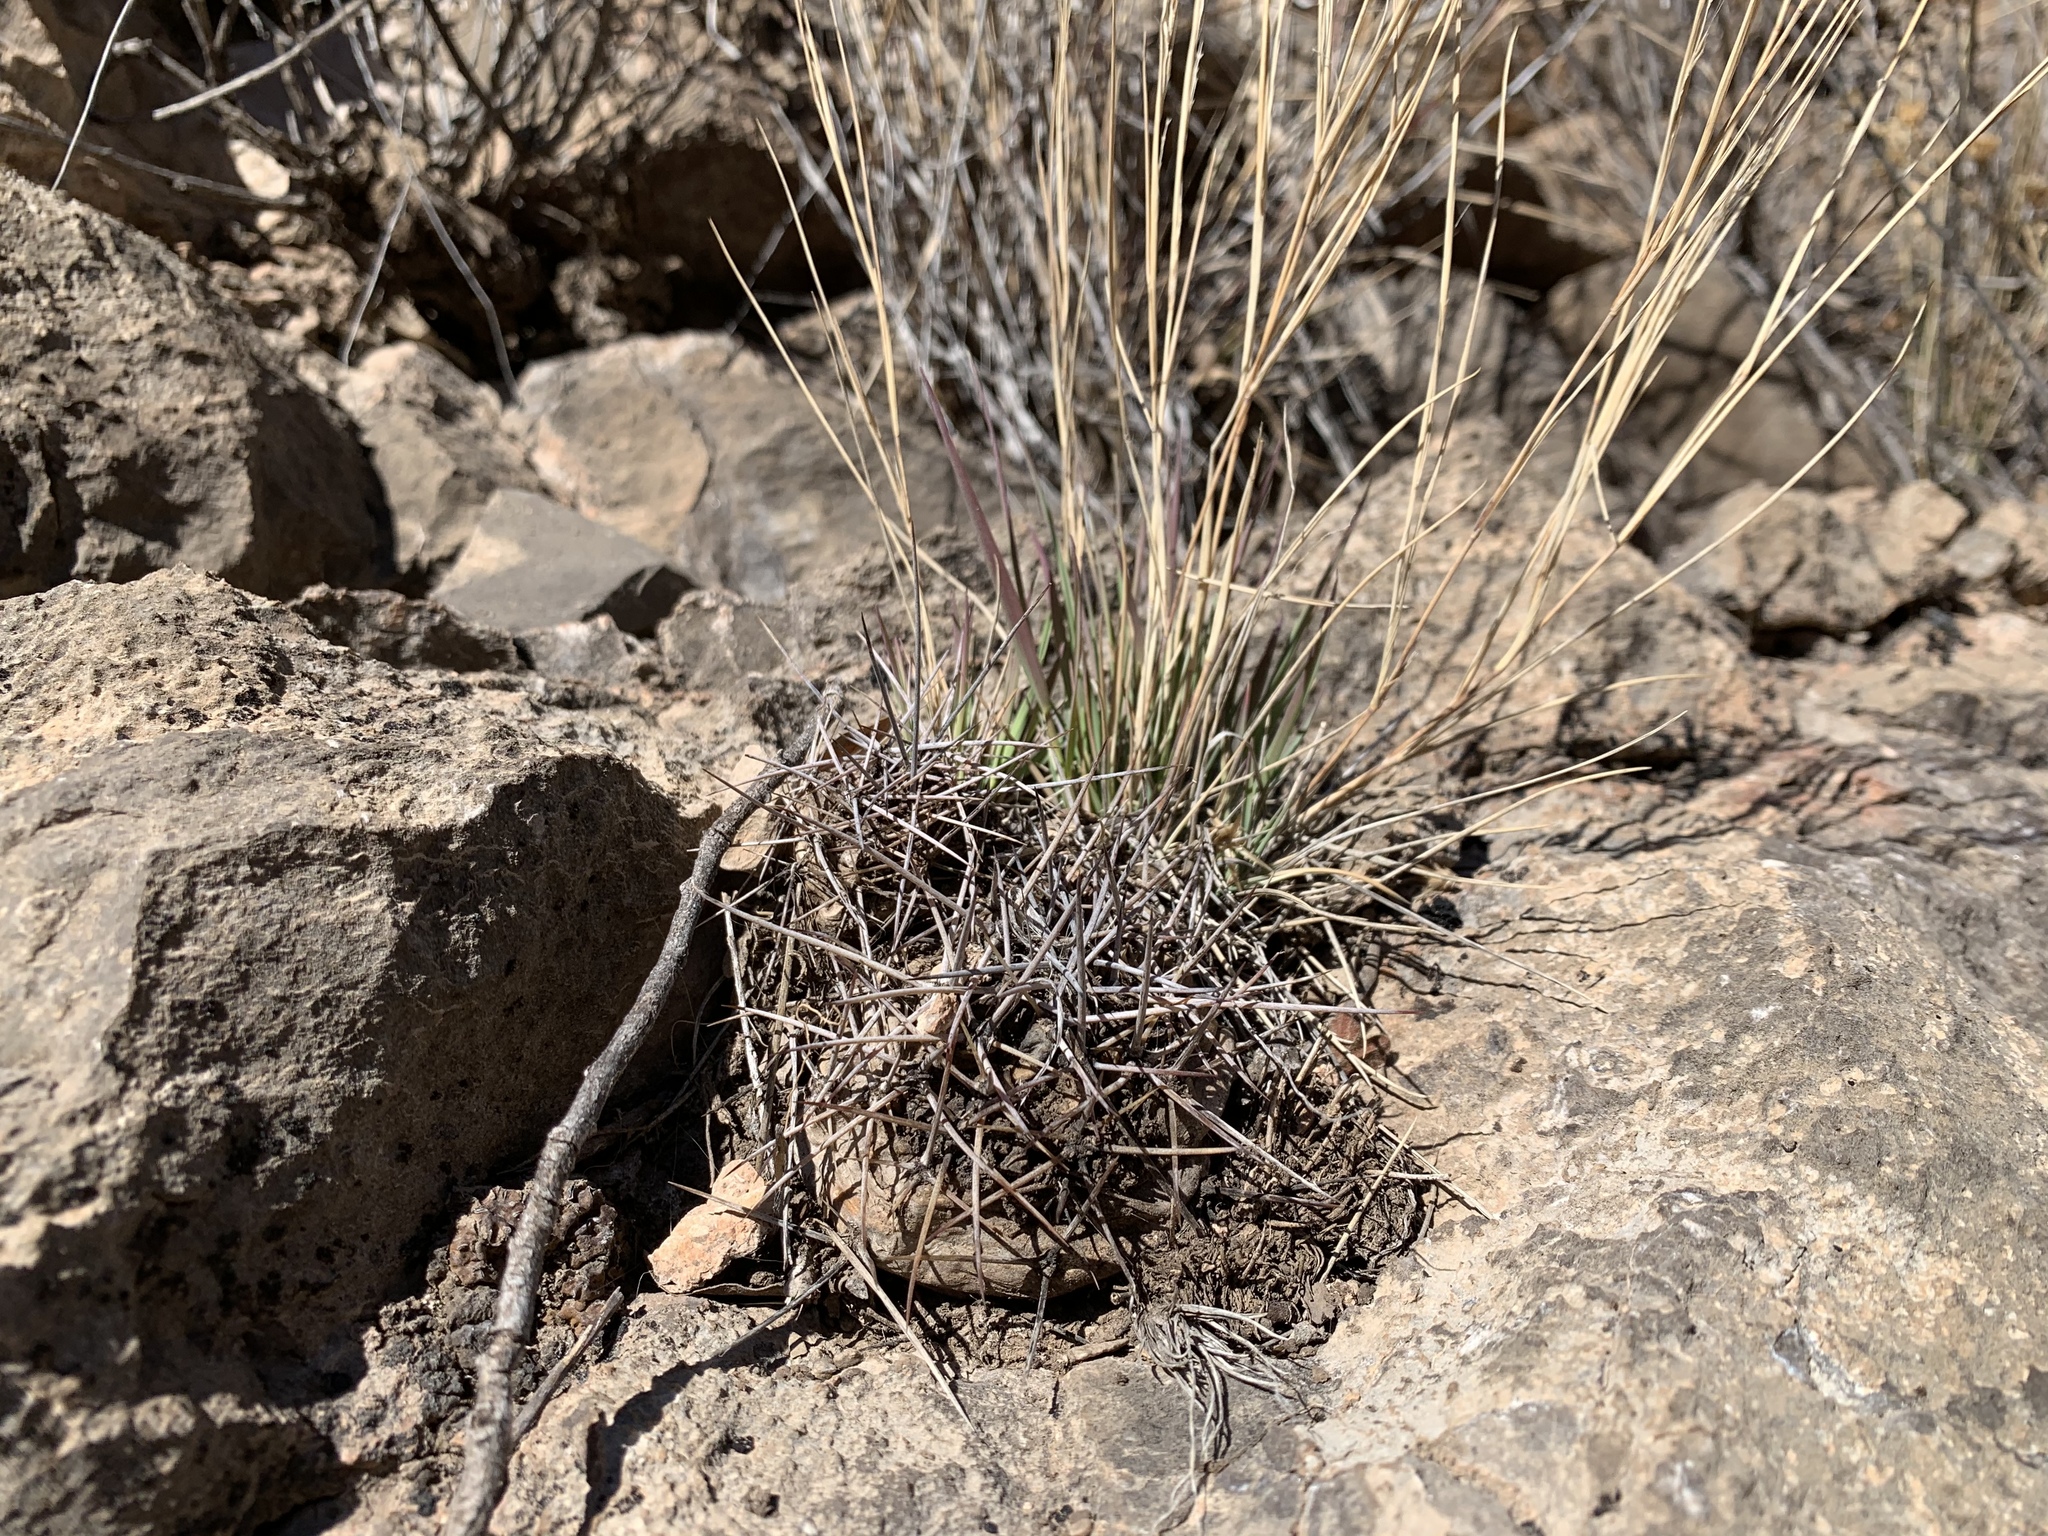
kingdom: Plantae
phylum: Tracheophyta
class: Magnoliopsida
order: Caryophyllales
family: Cactaceae
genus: Echinocereus
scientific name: Echinocereus coccineus
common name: Scarlet hedgehog cactus
